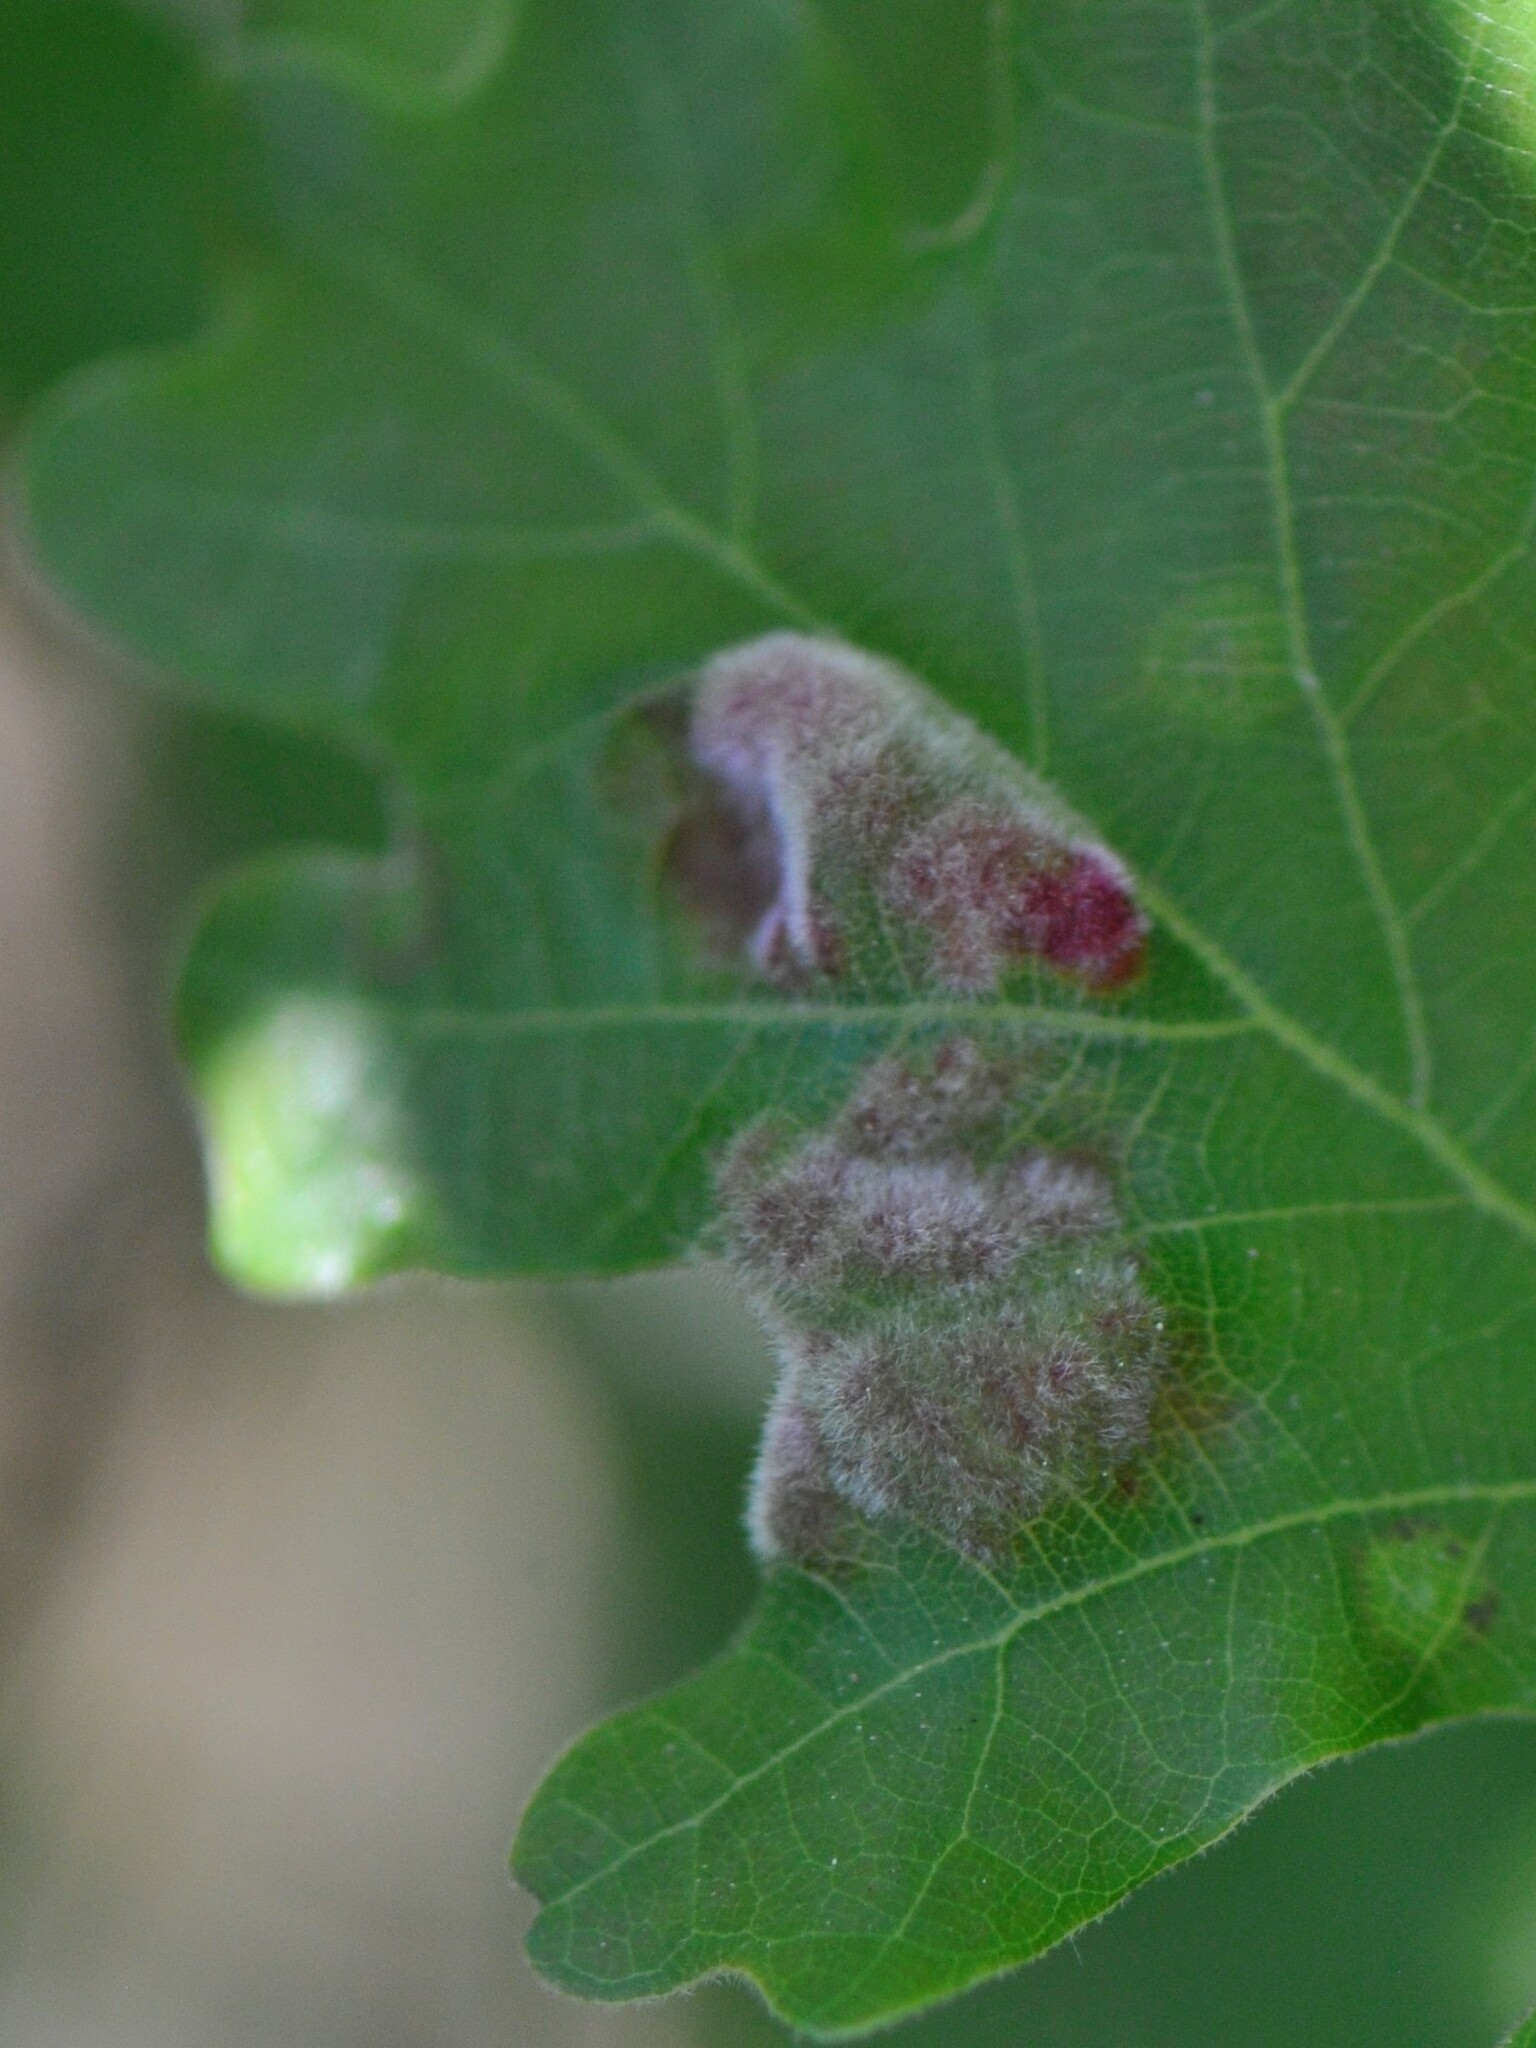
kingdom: Animalia
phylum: Arthropoda
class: Arachnida
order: Trombidiformes
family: Eriophyidae
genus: Aceria
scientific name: Aceria
